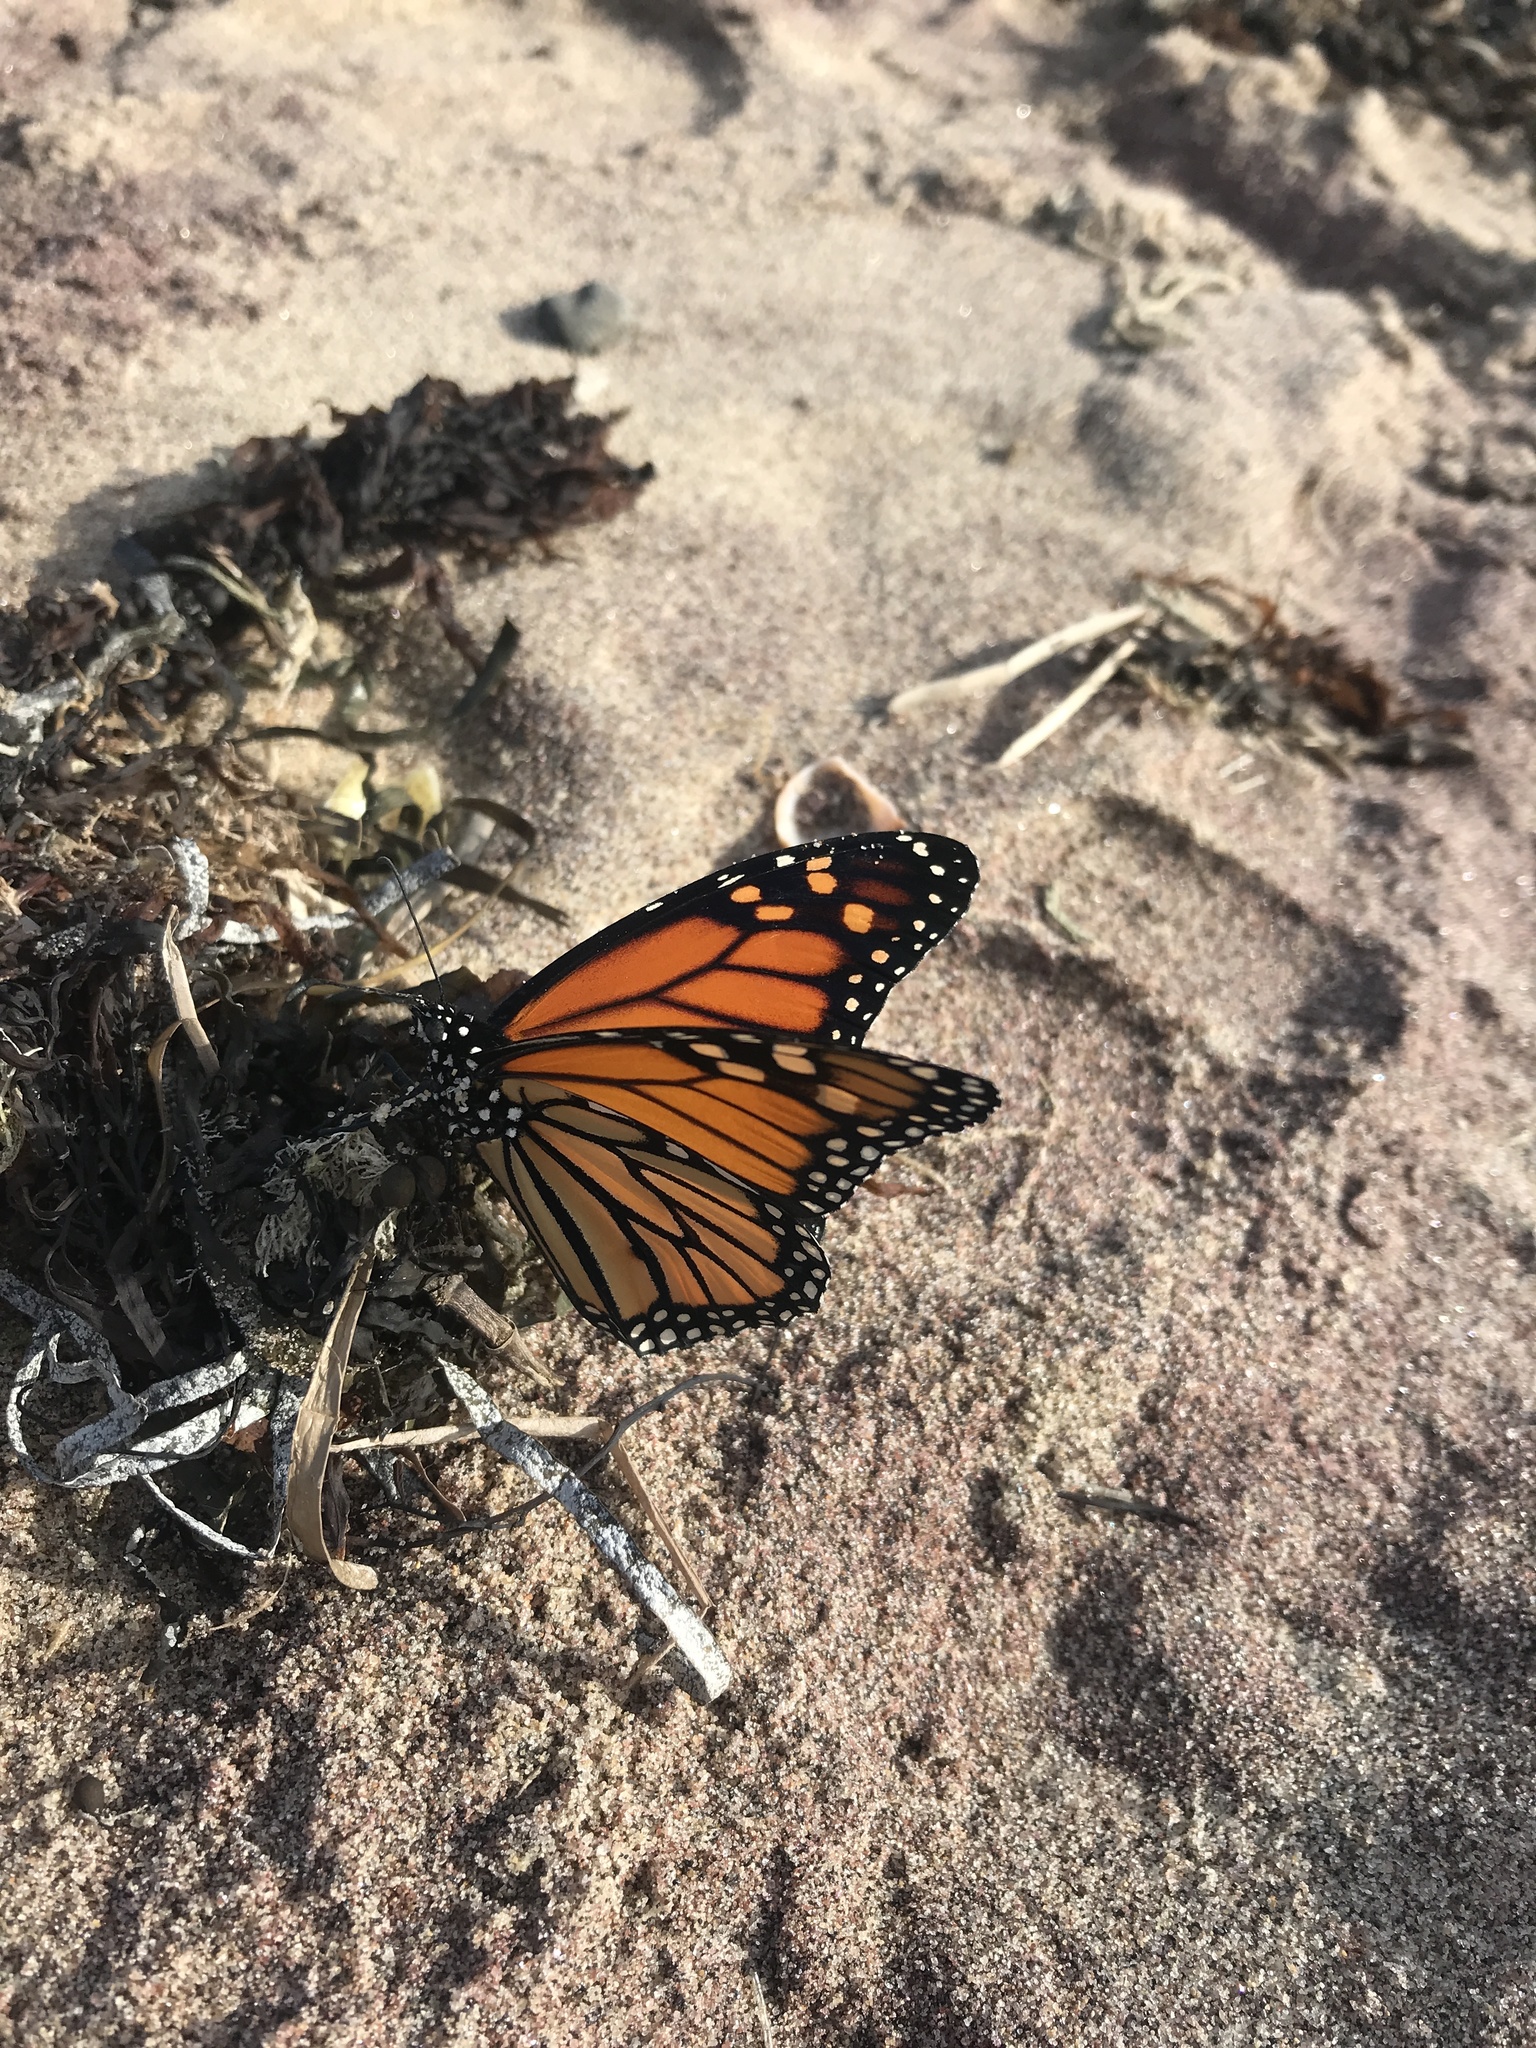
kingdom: Animalia
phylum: Arthropoda
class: Insecta
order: Lepidoptera
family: Nymphalidae
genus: Danaus
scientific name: Danaus plexippus
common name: Monarch
